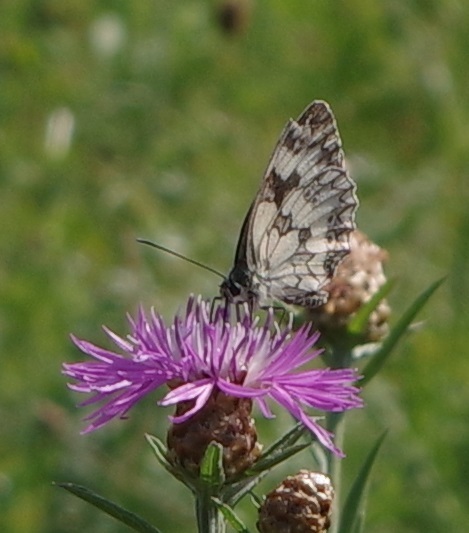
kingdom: Animalia
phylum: Arthropoda
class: Insecta
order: Lepidoptera
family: Nymphalidae
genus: Melanargia
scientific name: Melanargia galathea
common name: Marbled white
